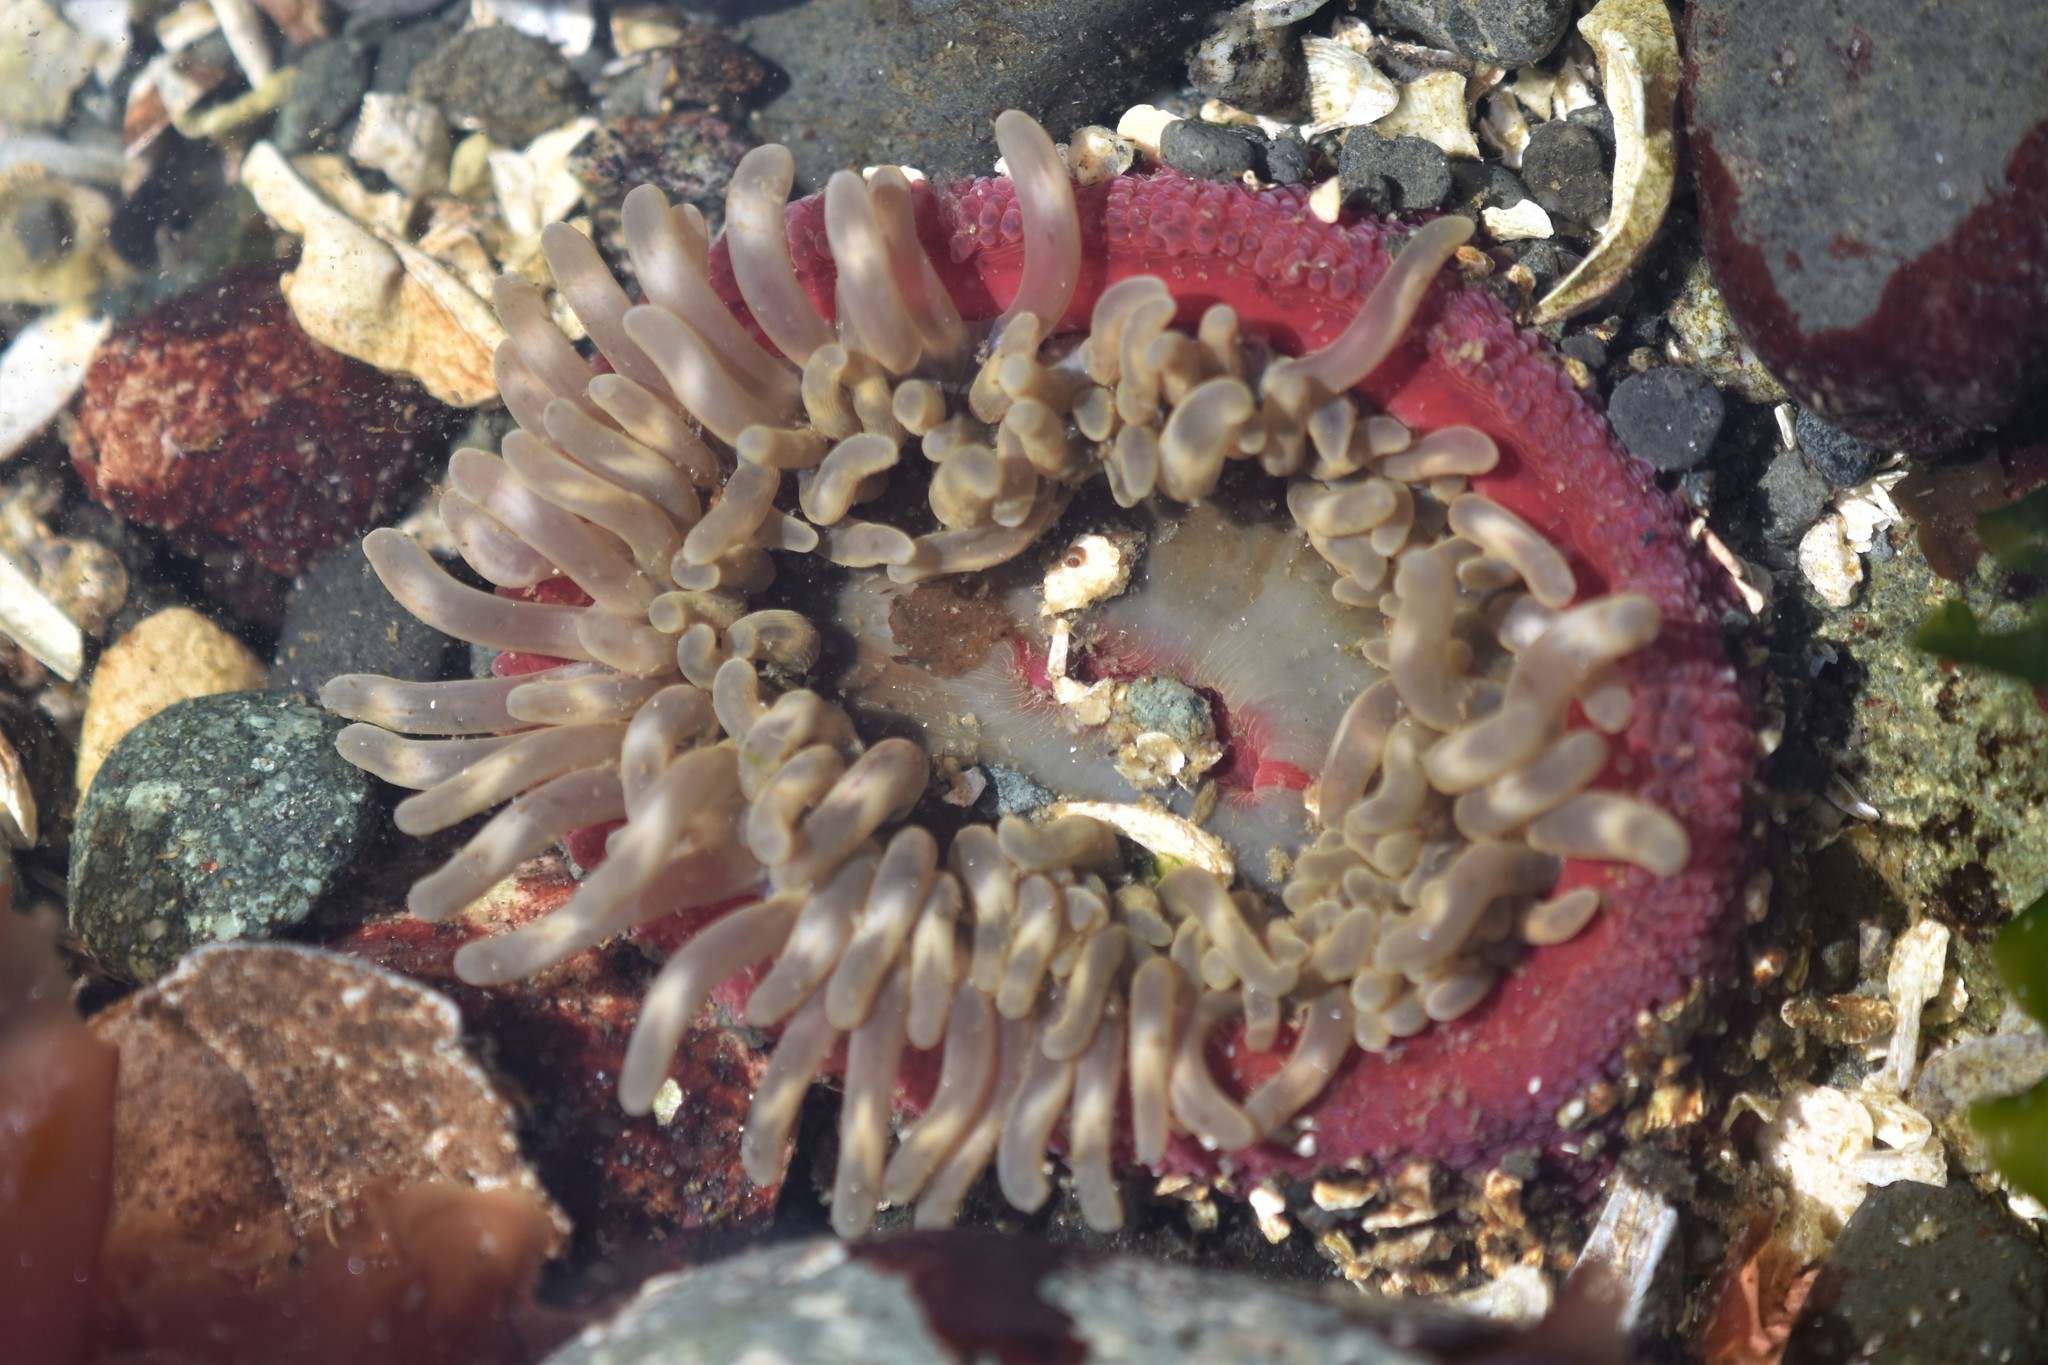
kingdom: Animalia
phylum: Cnidaria
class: Anthozoa
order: Actiniaria
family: Actiniidae
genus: Urticina
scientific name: Urticina clandestina
